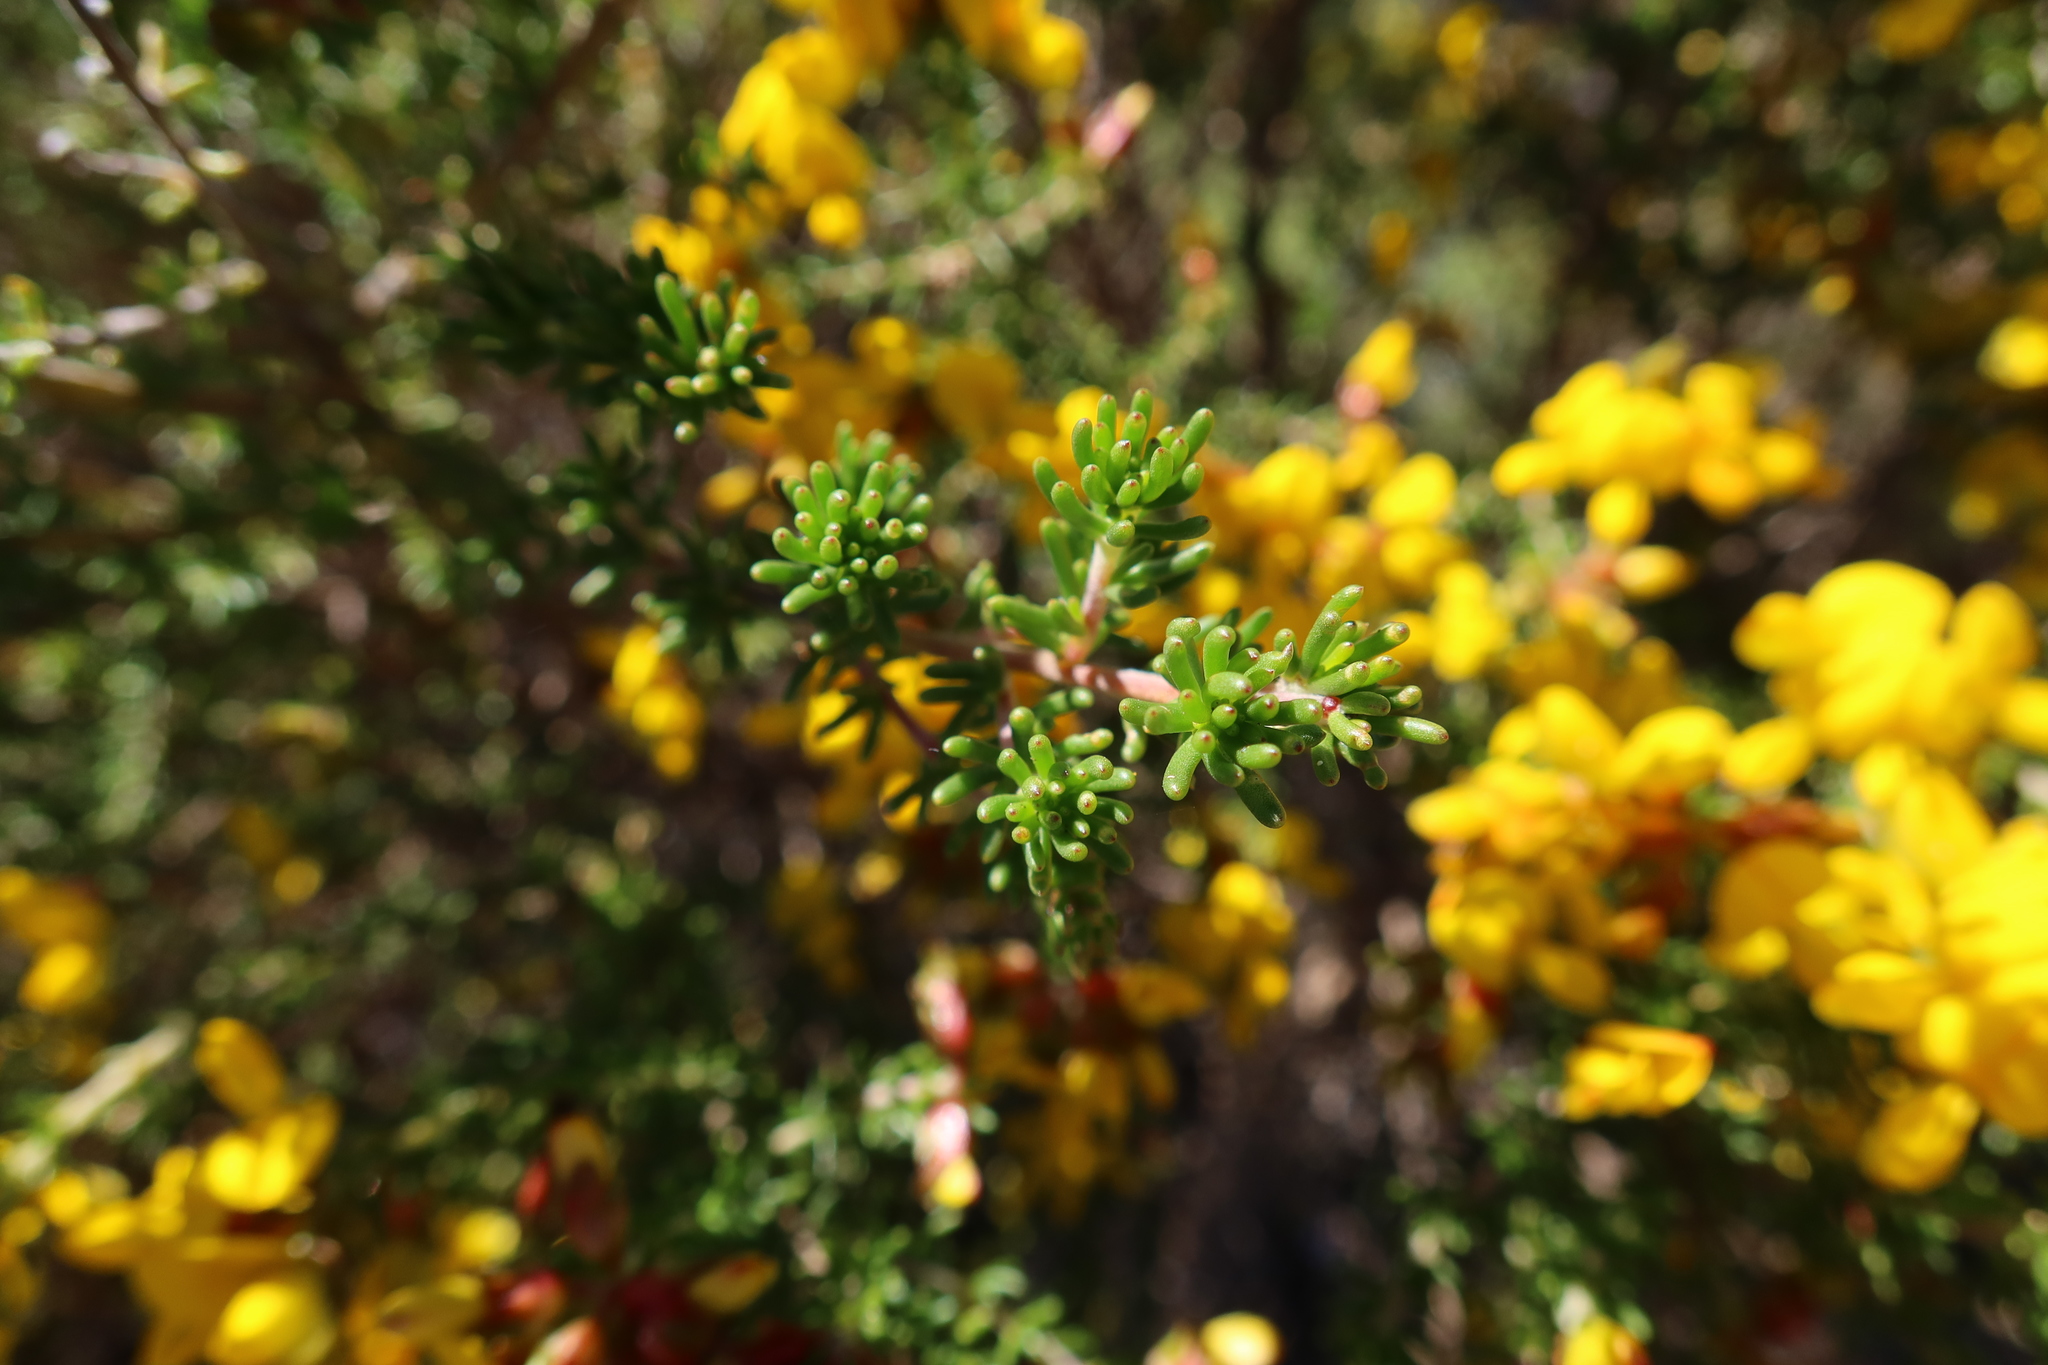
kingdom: Plantae
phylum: Tracheophyta
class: Magnoliopsida
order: Fabales
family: Fabaceae
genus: Aspalathus
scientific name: Aspalathus carnosa
